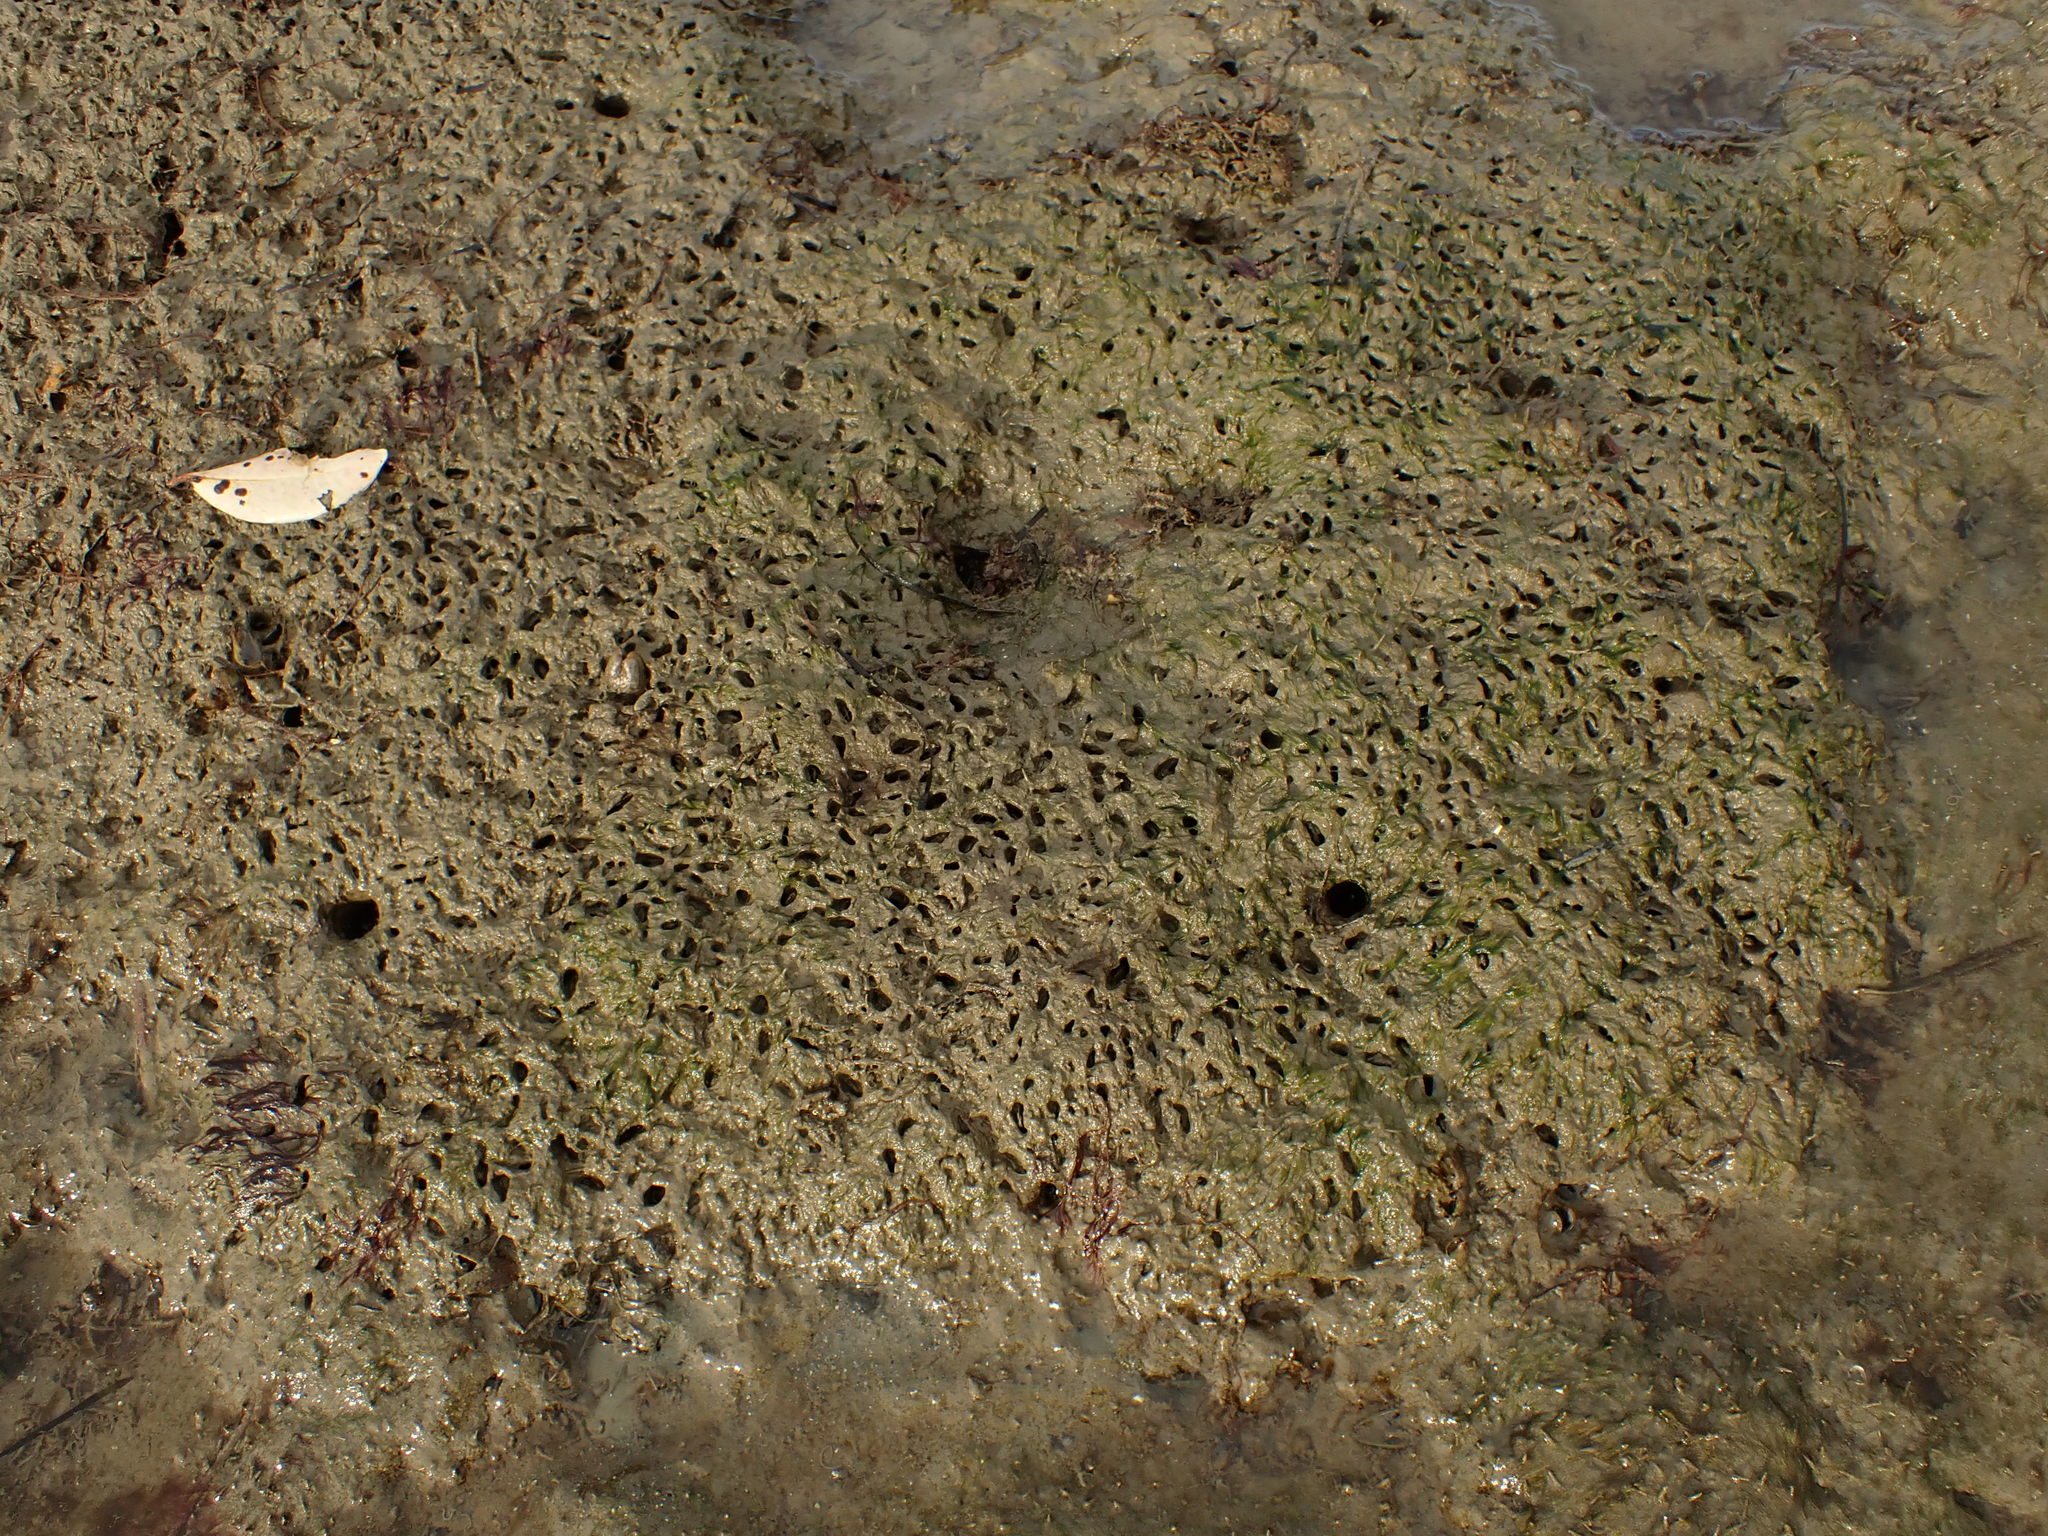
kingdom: Animalia
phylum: Mollusca
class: Bivalvia
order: Mytilida
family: Mytilidae
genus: Arcuatula
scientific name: Arcuatula senhousia
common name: Asian mussel
